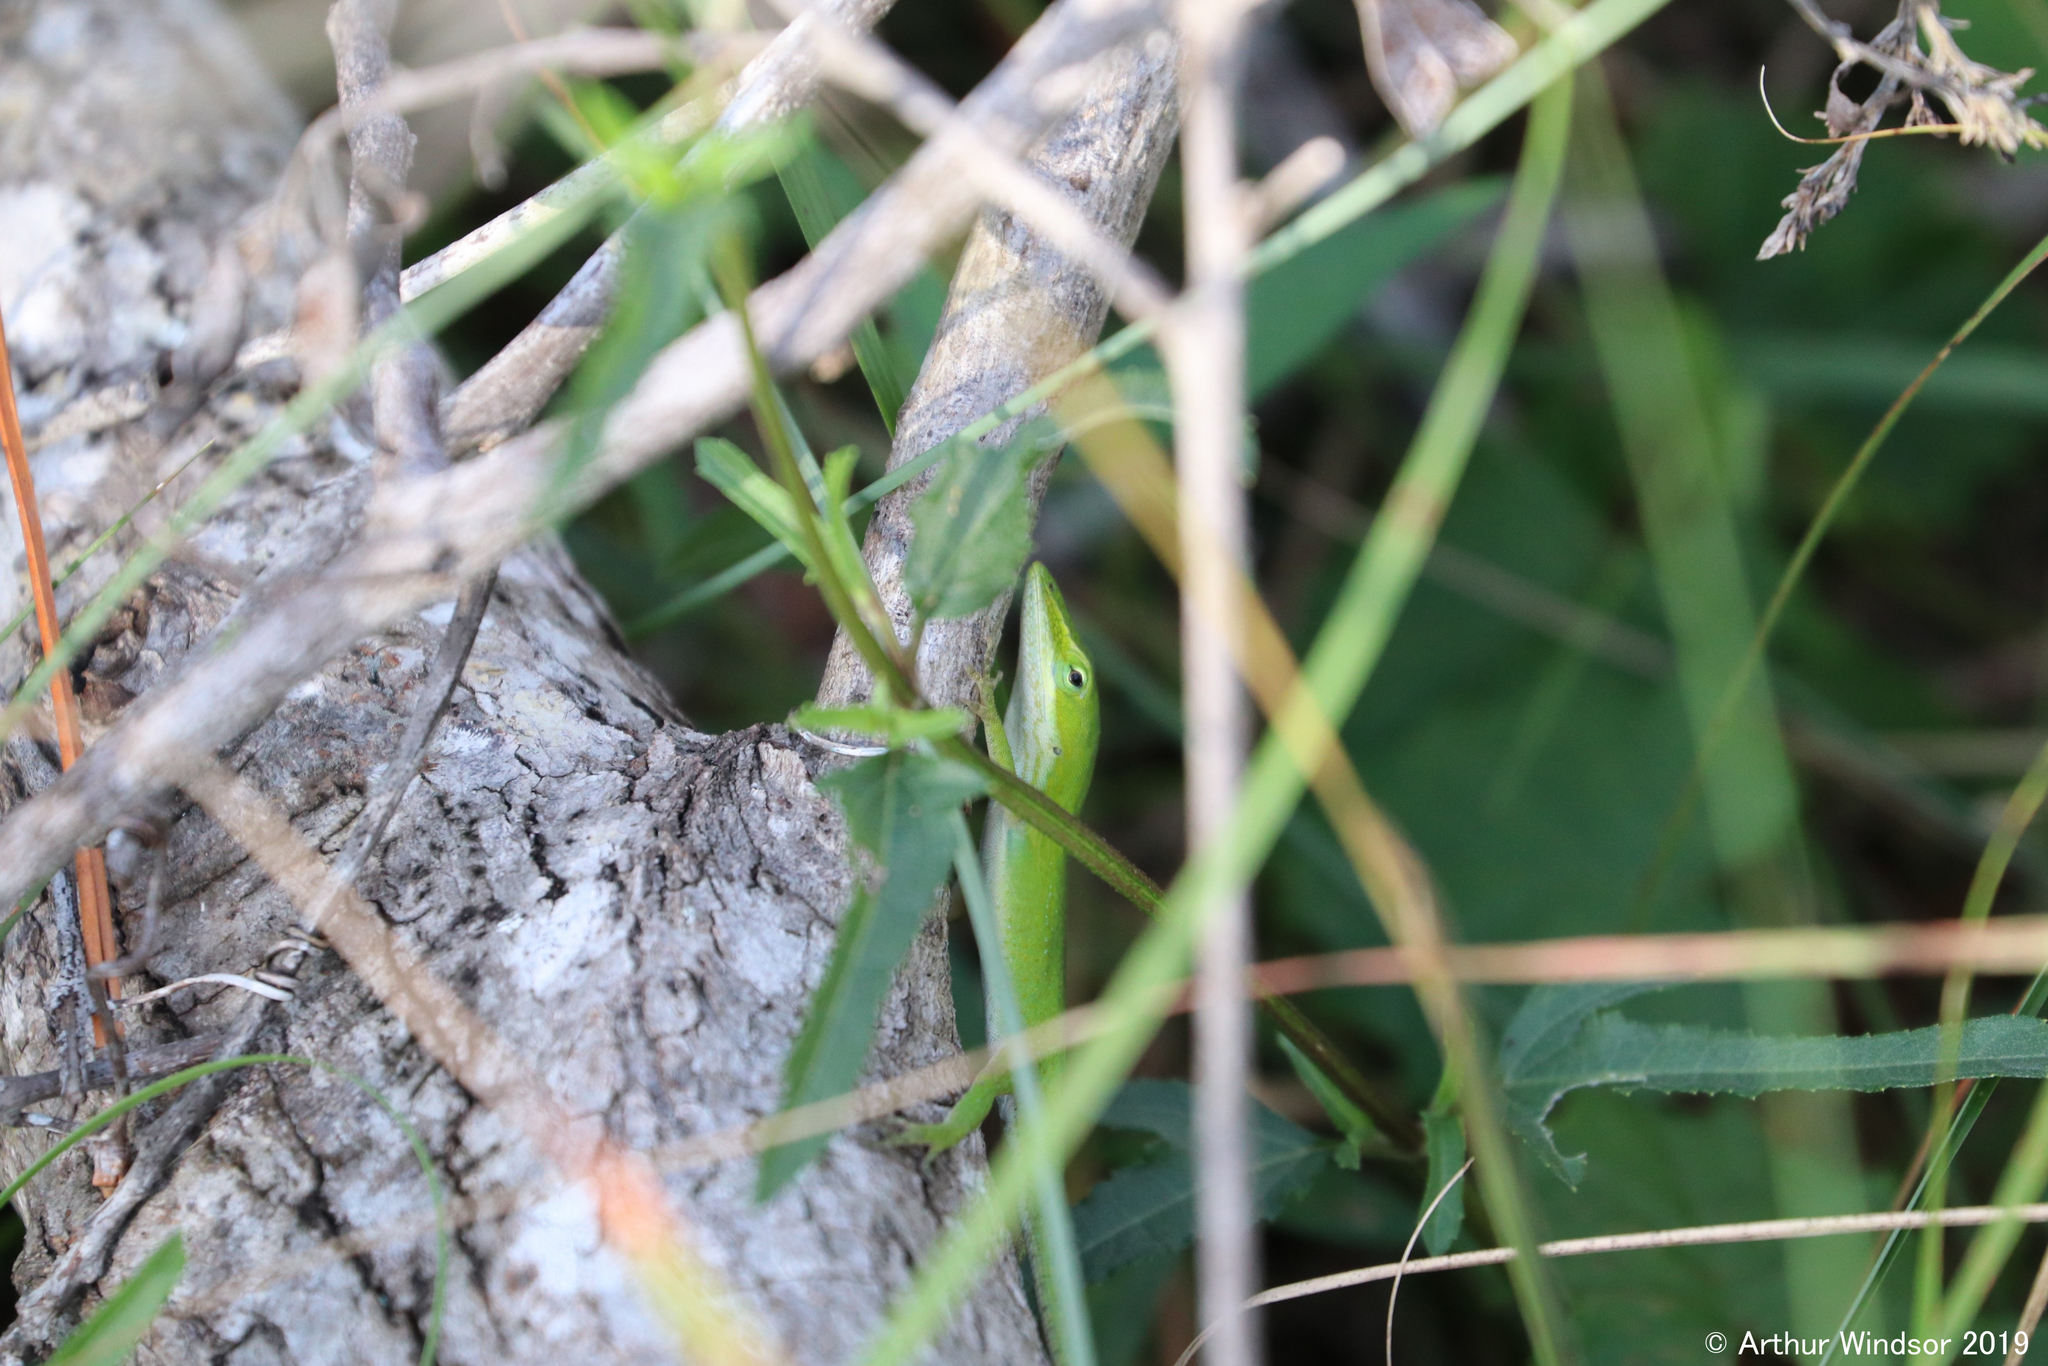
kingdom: Animalia
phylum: Chordata
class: Squamata
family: Dactyloidae
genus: Anolis
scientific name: Anolis carolinensis
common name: Green anole
